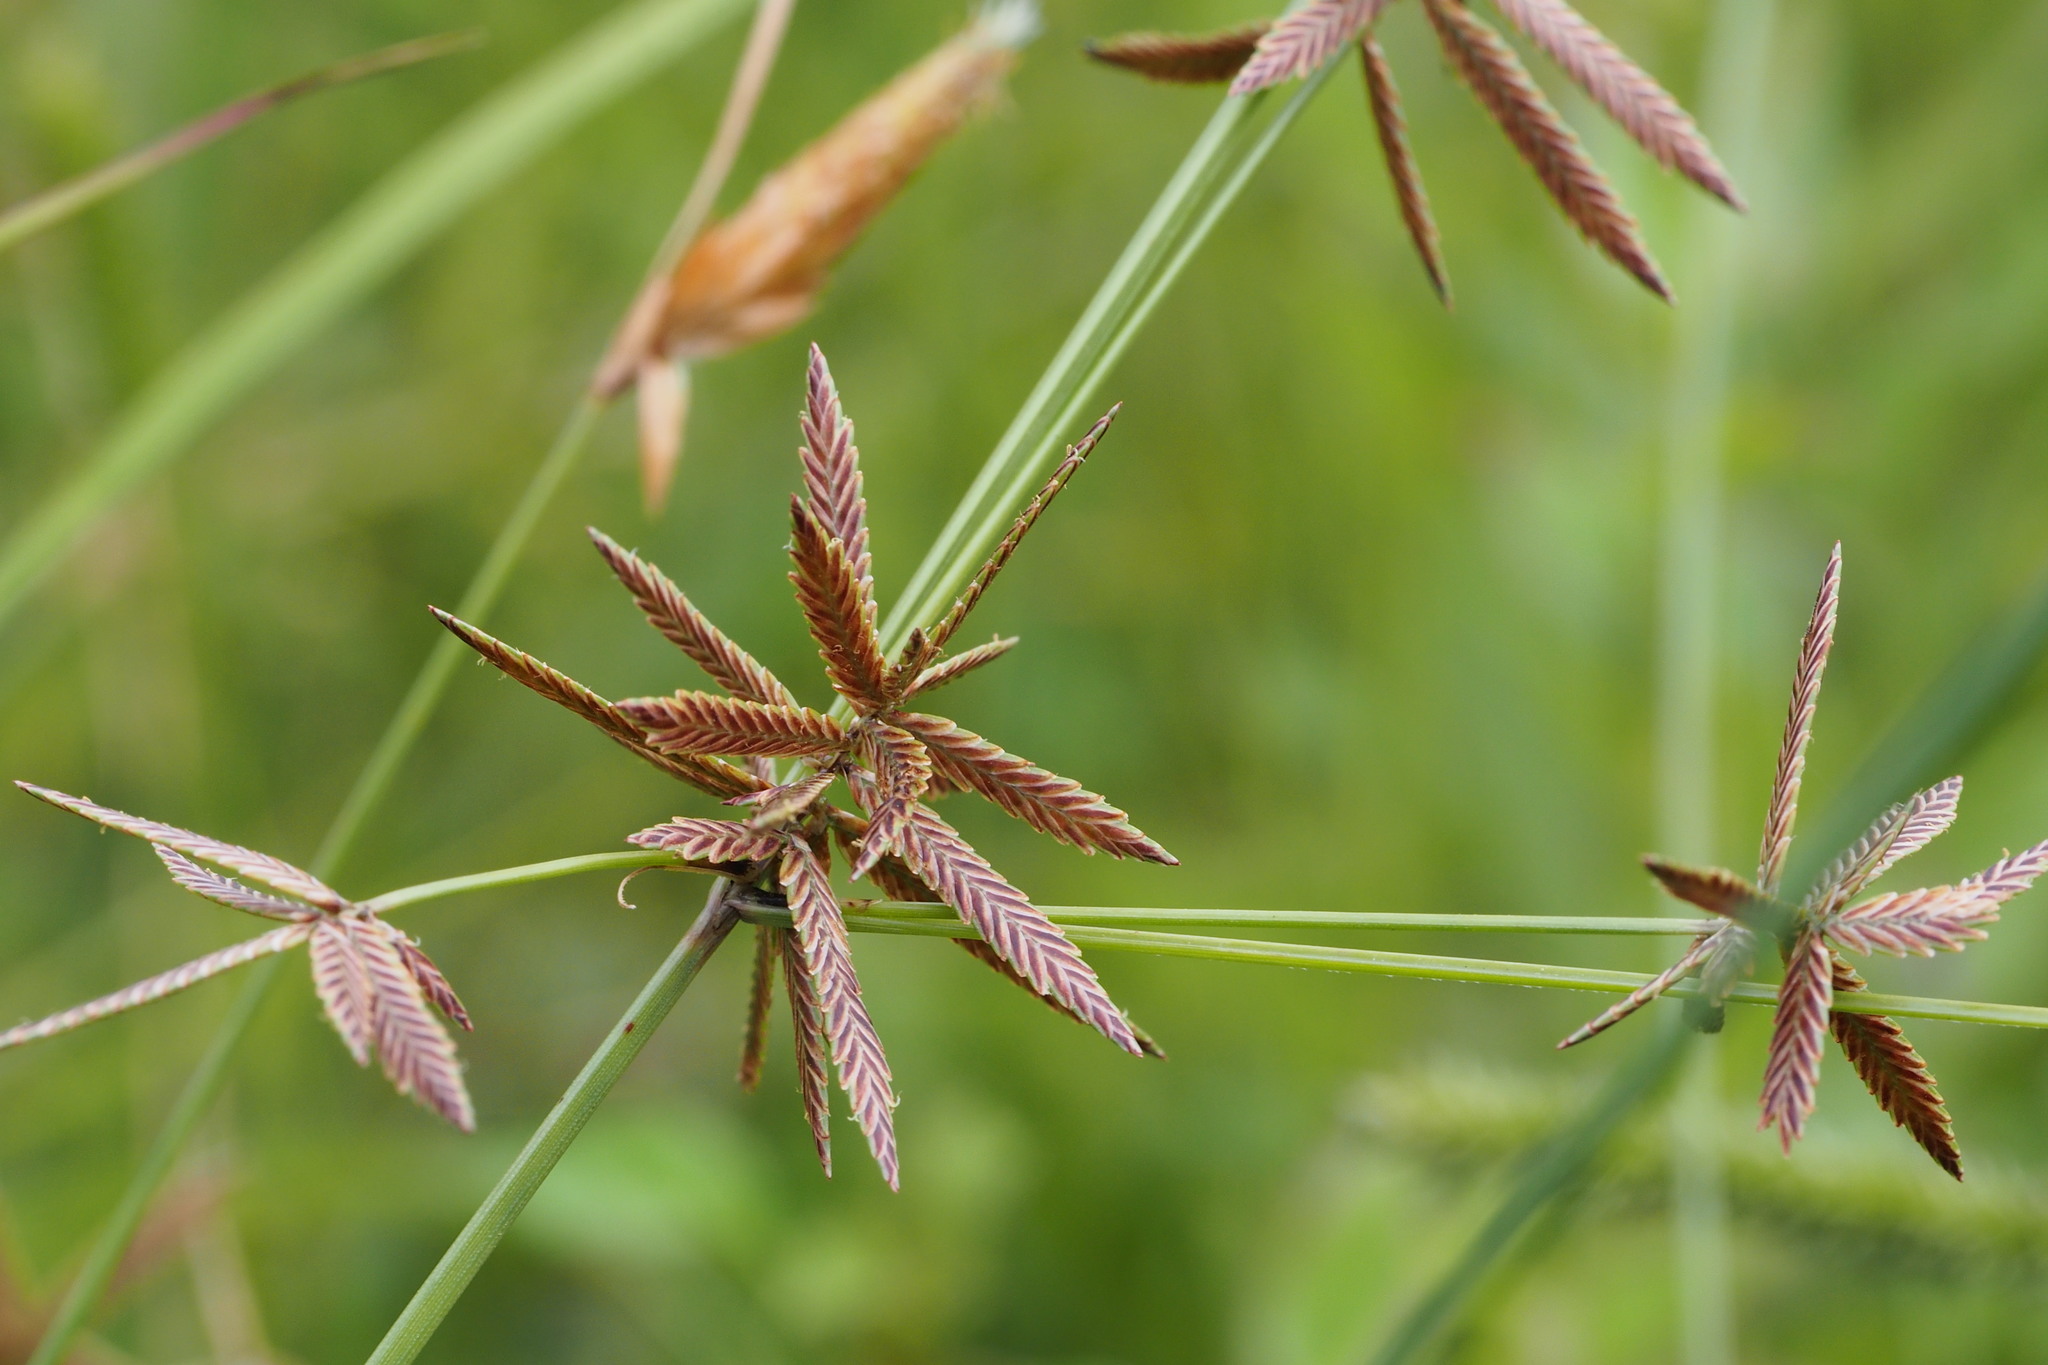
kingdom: Plantae
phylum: Tracheophyta
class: Liliopsida
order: Poales
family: Cyperaceae
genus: Cyperus
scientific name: Cyperus flavidus
